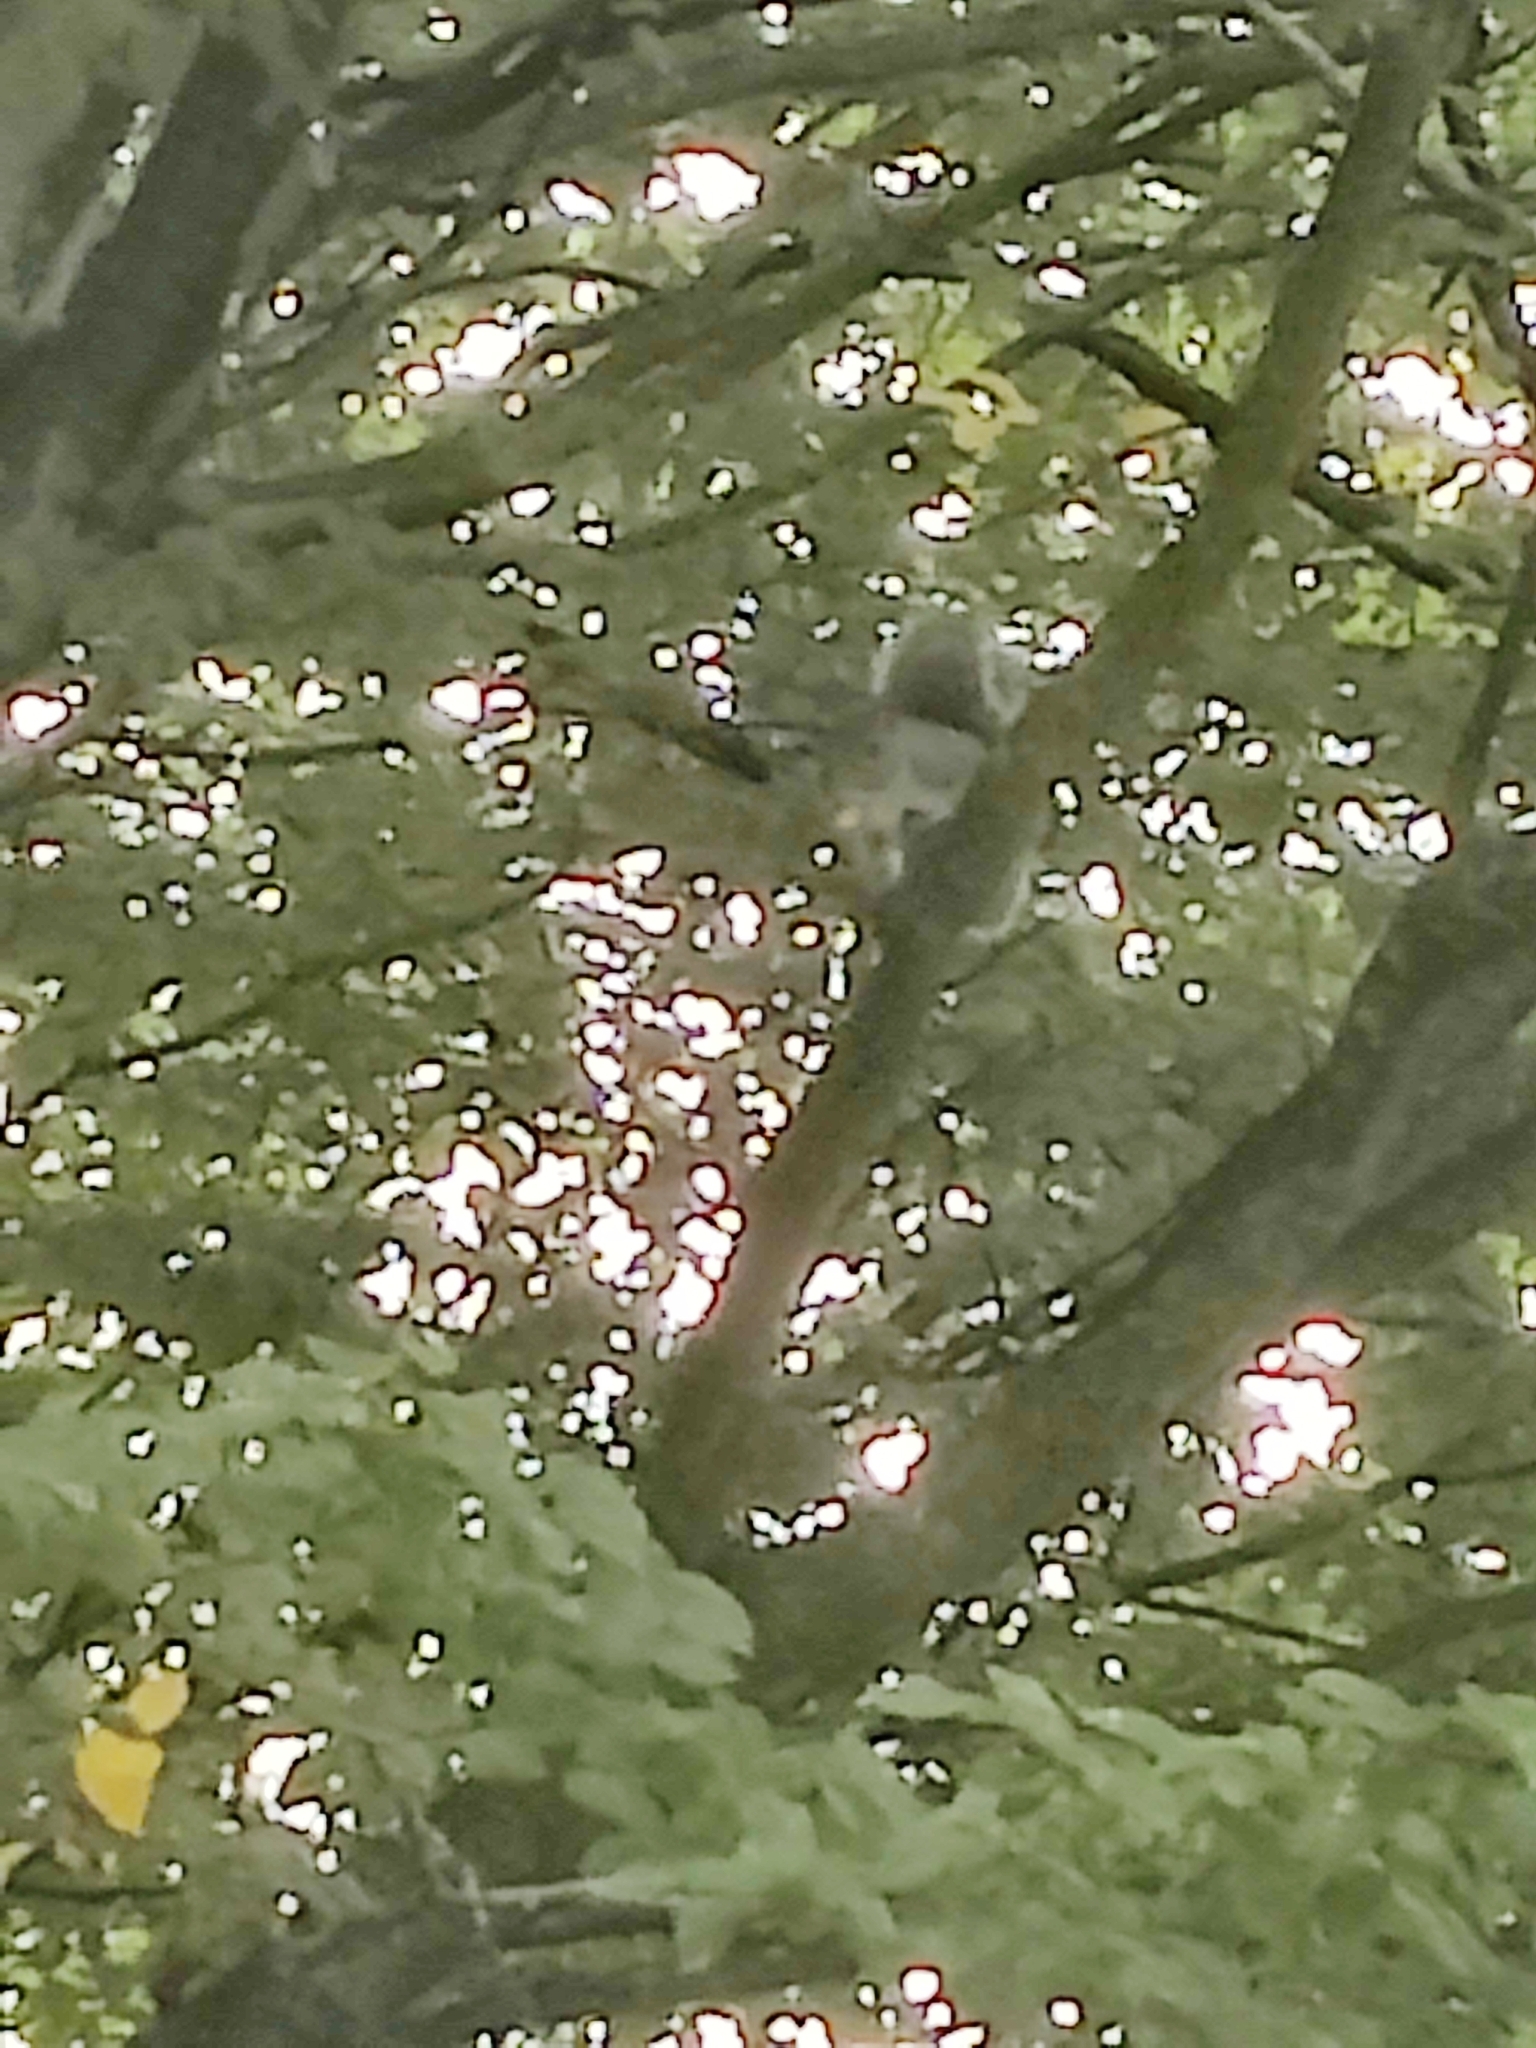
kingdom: Animalia
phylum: Chordata
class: Mammalia
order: Rodentia
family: Sciuridae
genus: Sciurus
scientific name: Sciurus carolinensis
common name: Eastern gray squirrel
